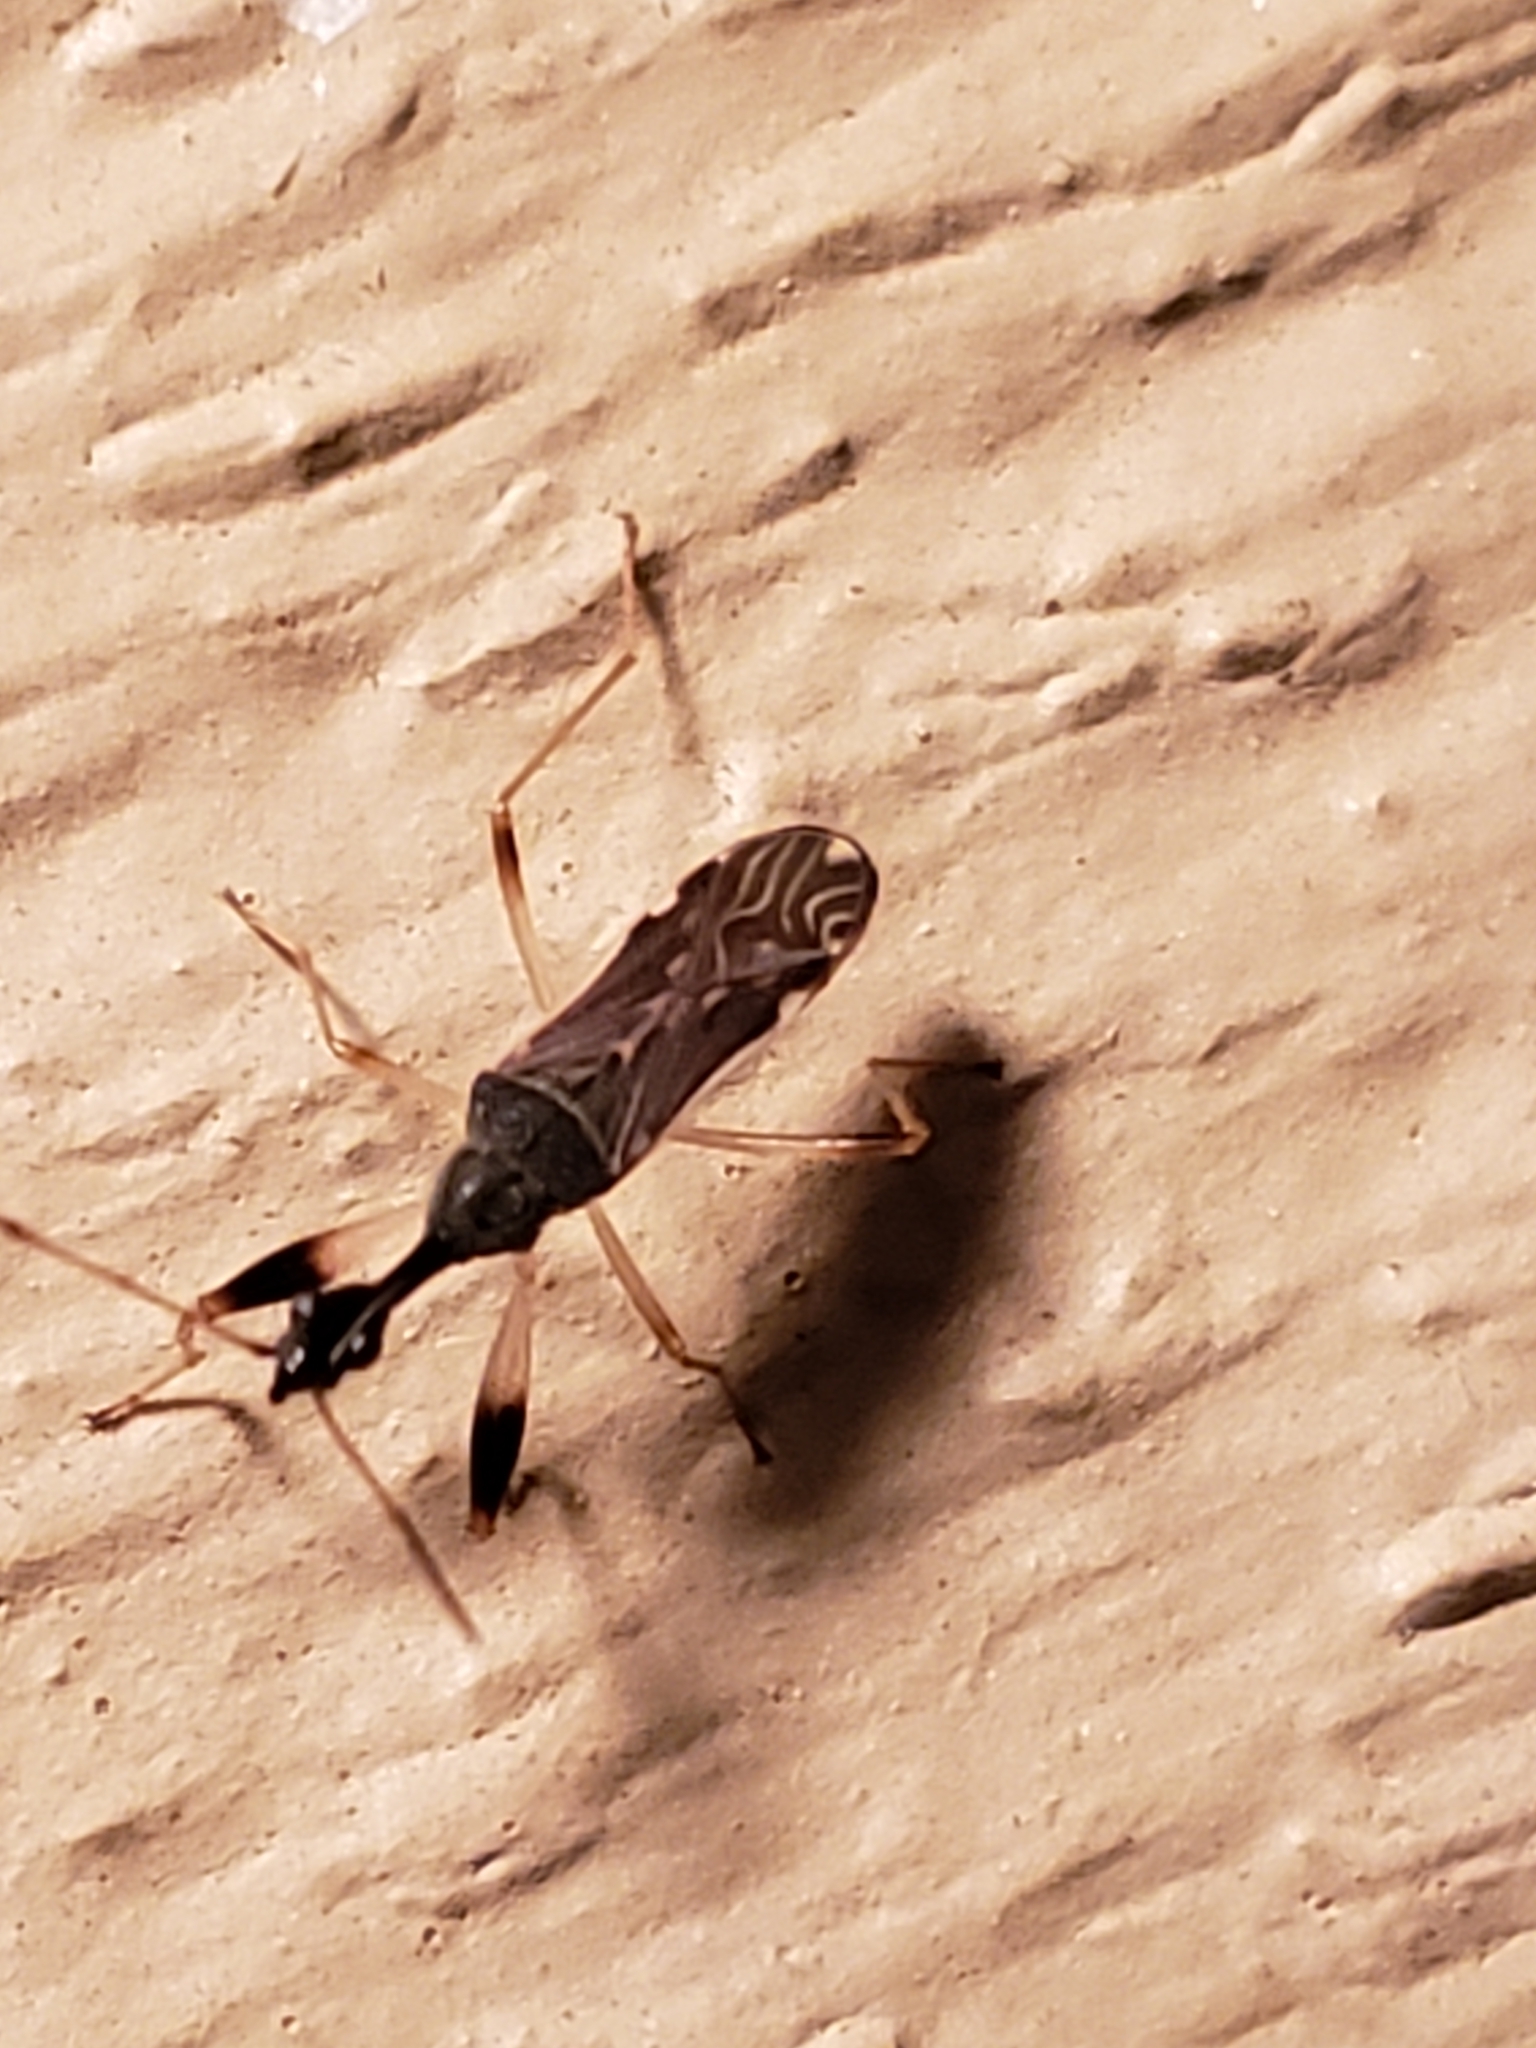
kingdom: Animalia
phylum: Arthropoda
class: Insecta
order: Hemiptera
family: Rhyparochromidae
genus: Myodocha
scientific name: Myodocha serripes
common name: Long-necked seed bug
